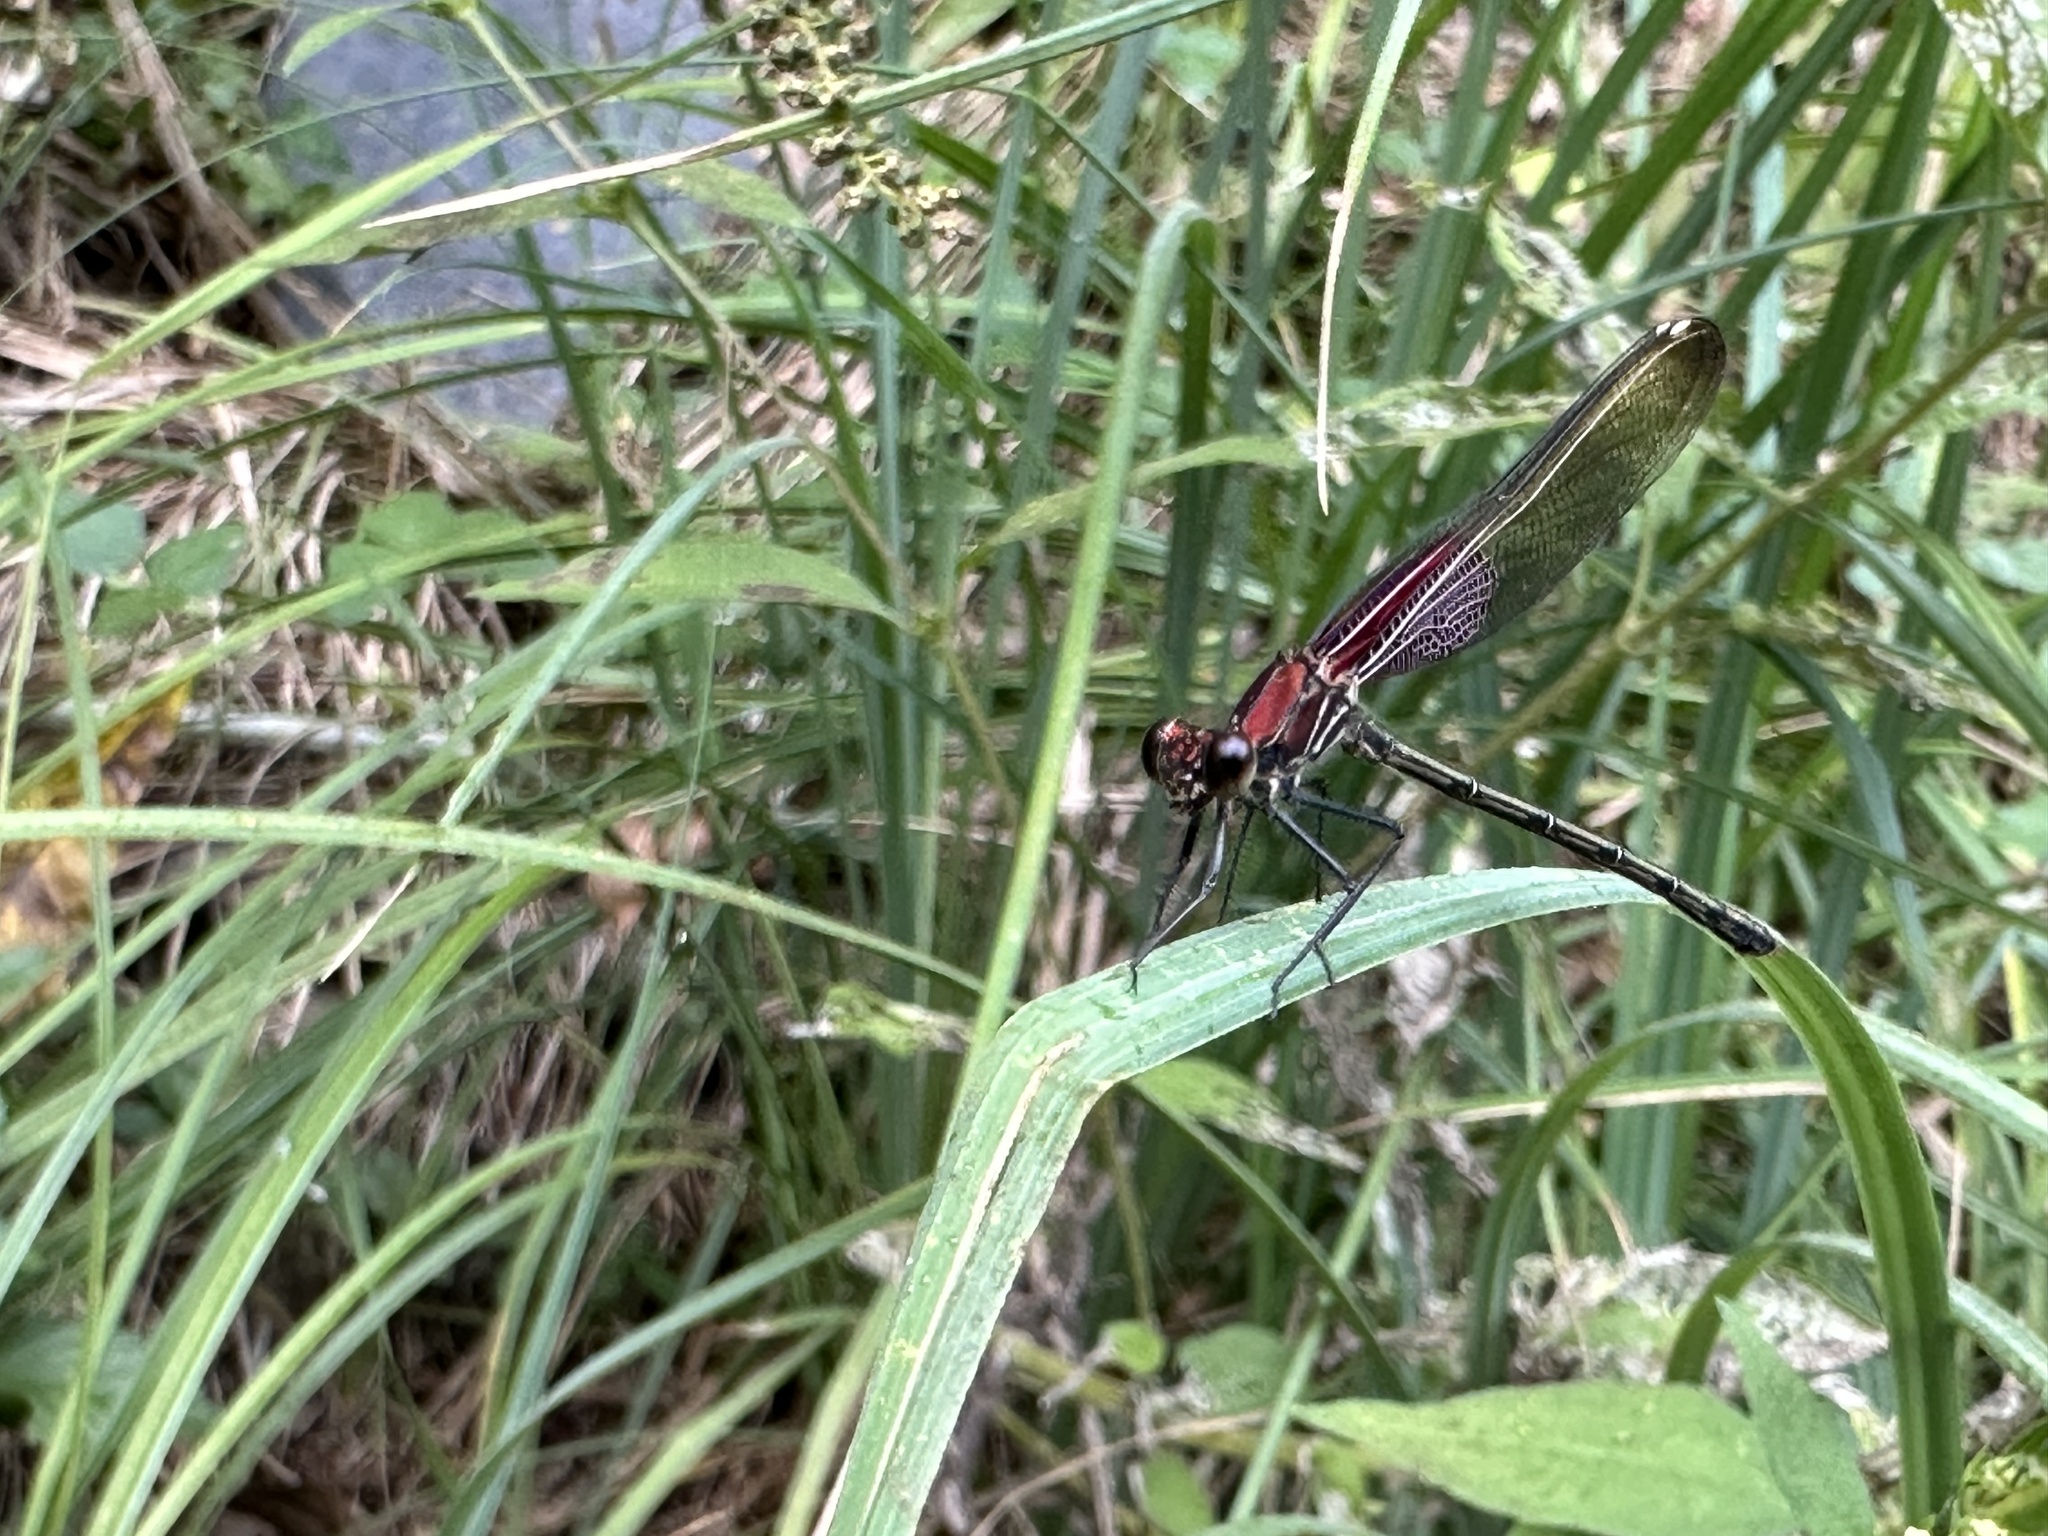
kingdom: Animalia
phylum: Arthropoda
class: Insecta
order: Odonata
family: Calopterygidae
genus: Hetaerina
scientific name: Hetaerina americana
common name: American rubyspot
